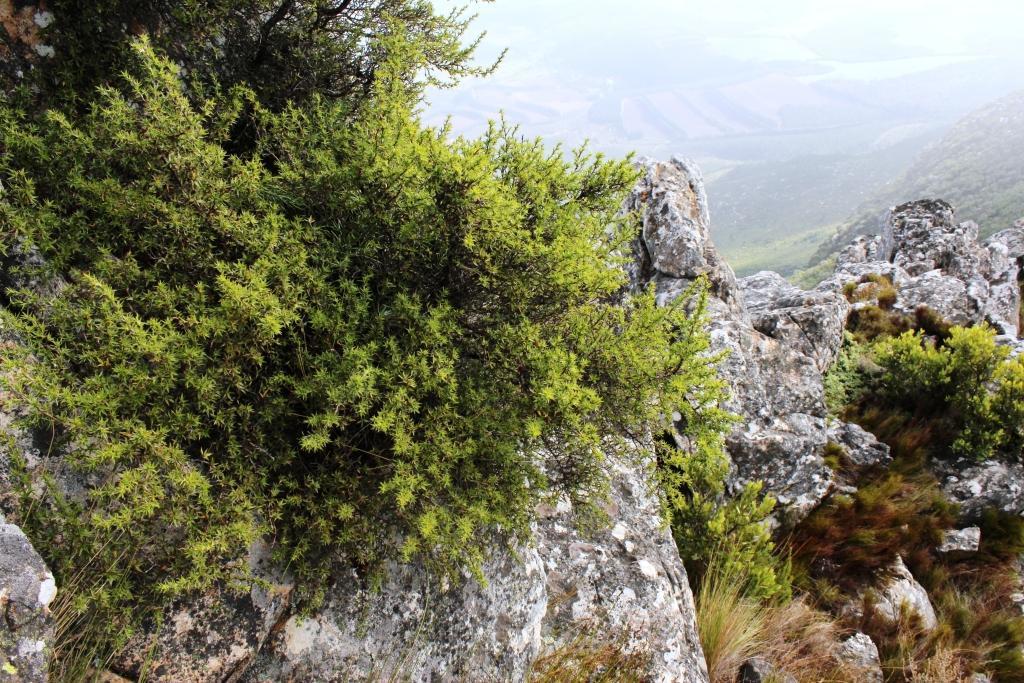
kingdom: Plantae
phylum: Tracheophyta
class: Magnoliopsida
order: Rosales
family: Rosaceae
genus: Cliffortia
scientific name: Cliffortia ruscifolia
